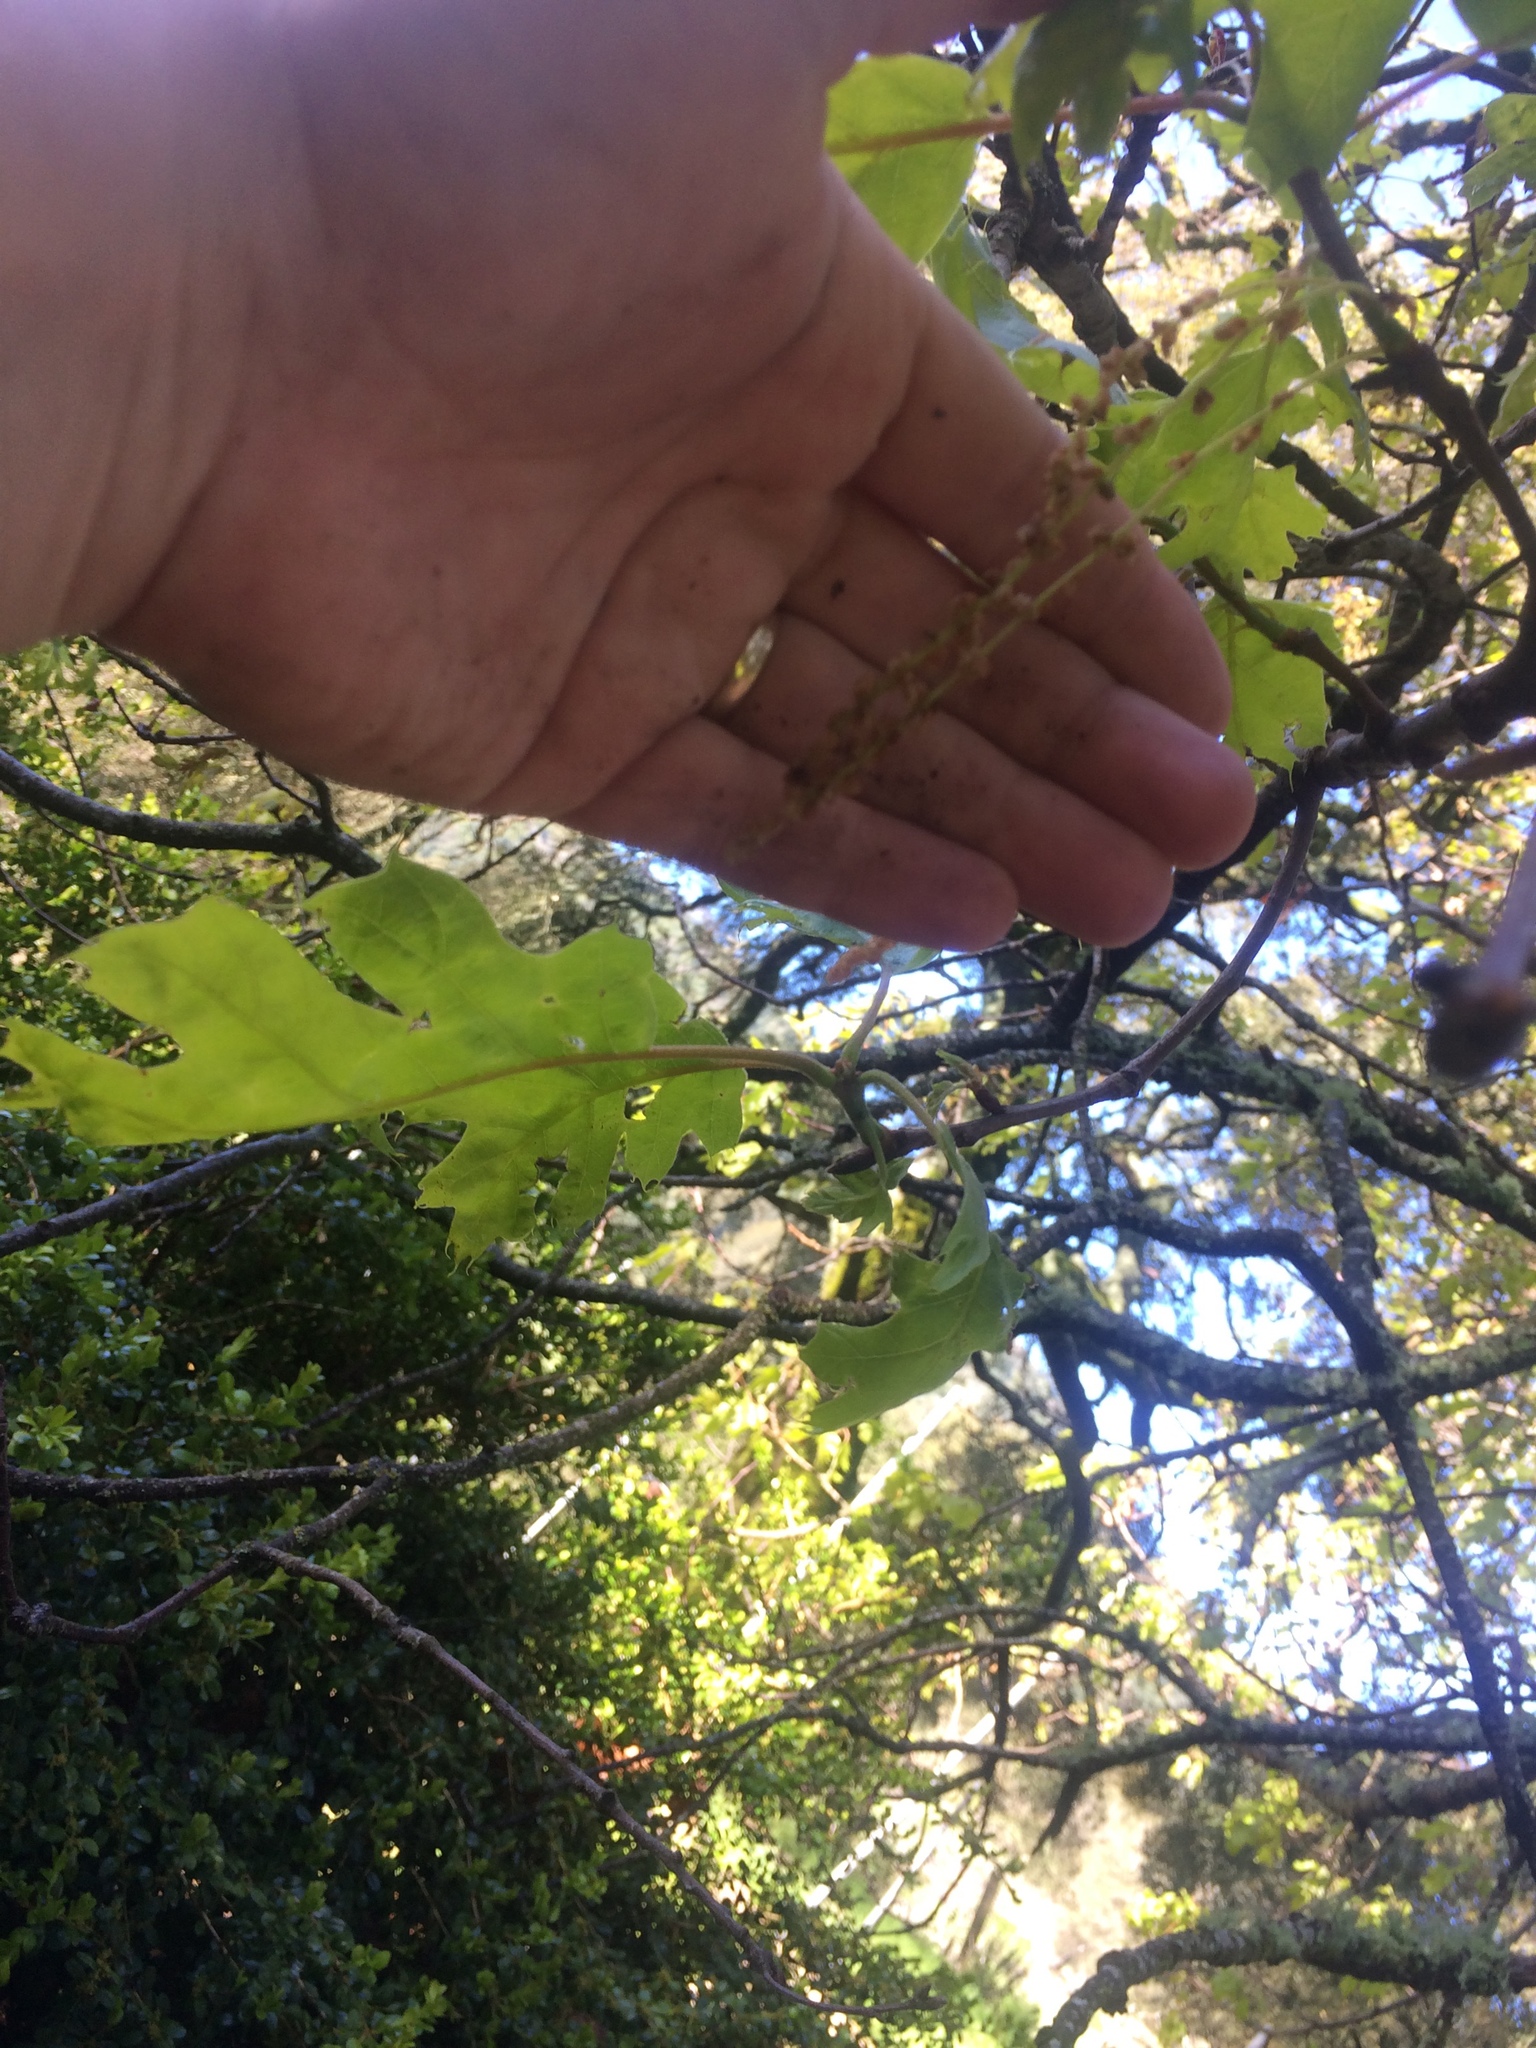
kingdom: Plantae
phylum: Tracheophyta
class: Magnoliopsida
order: Fagales
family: Fagaceae
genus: Quercus
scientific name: Quercus kelloggii
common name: California black oak
